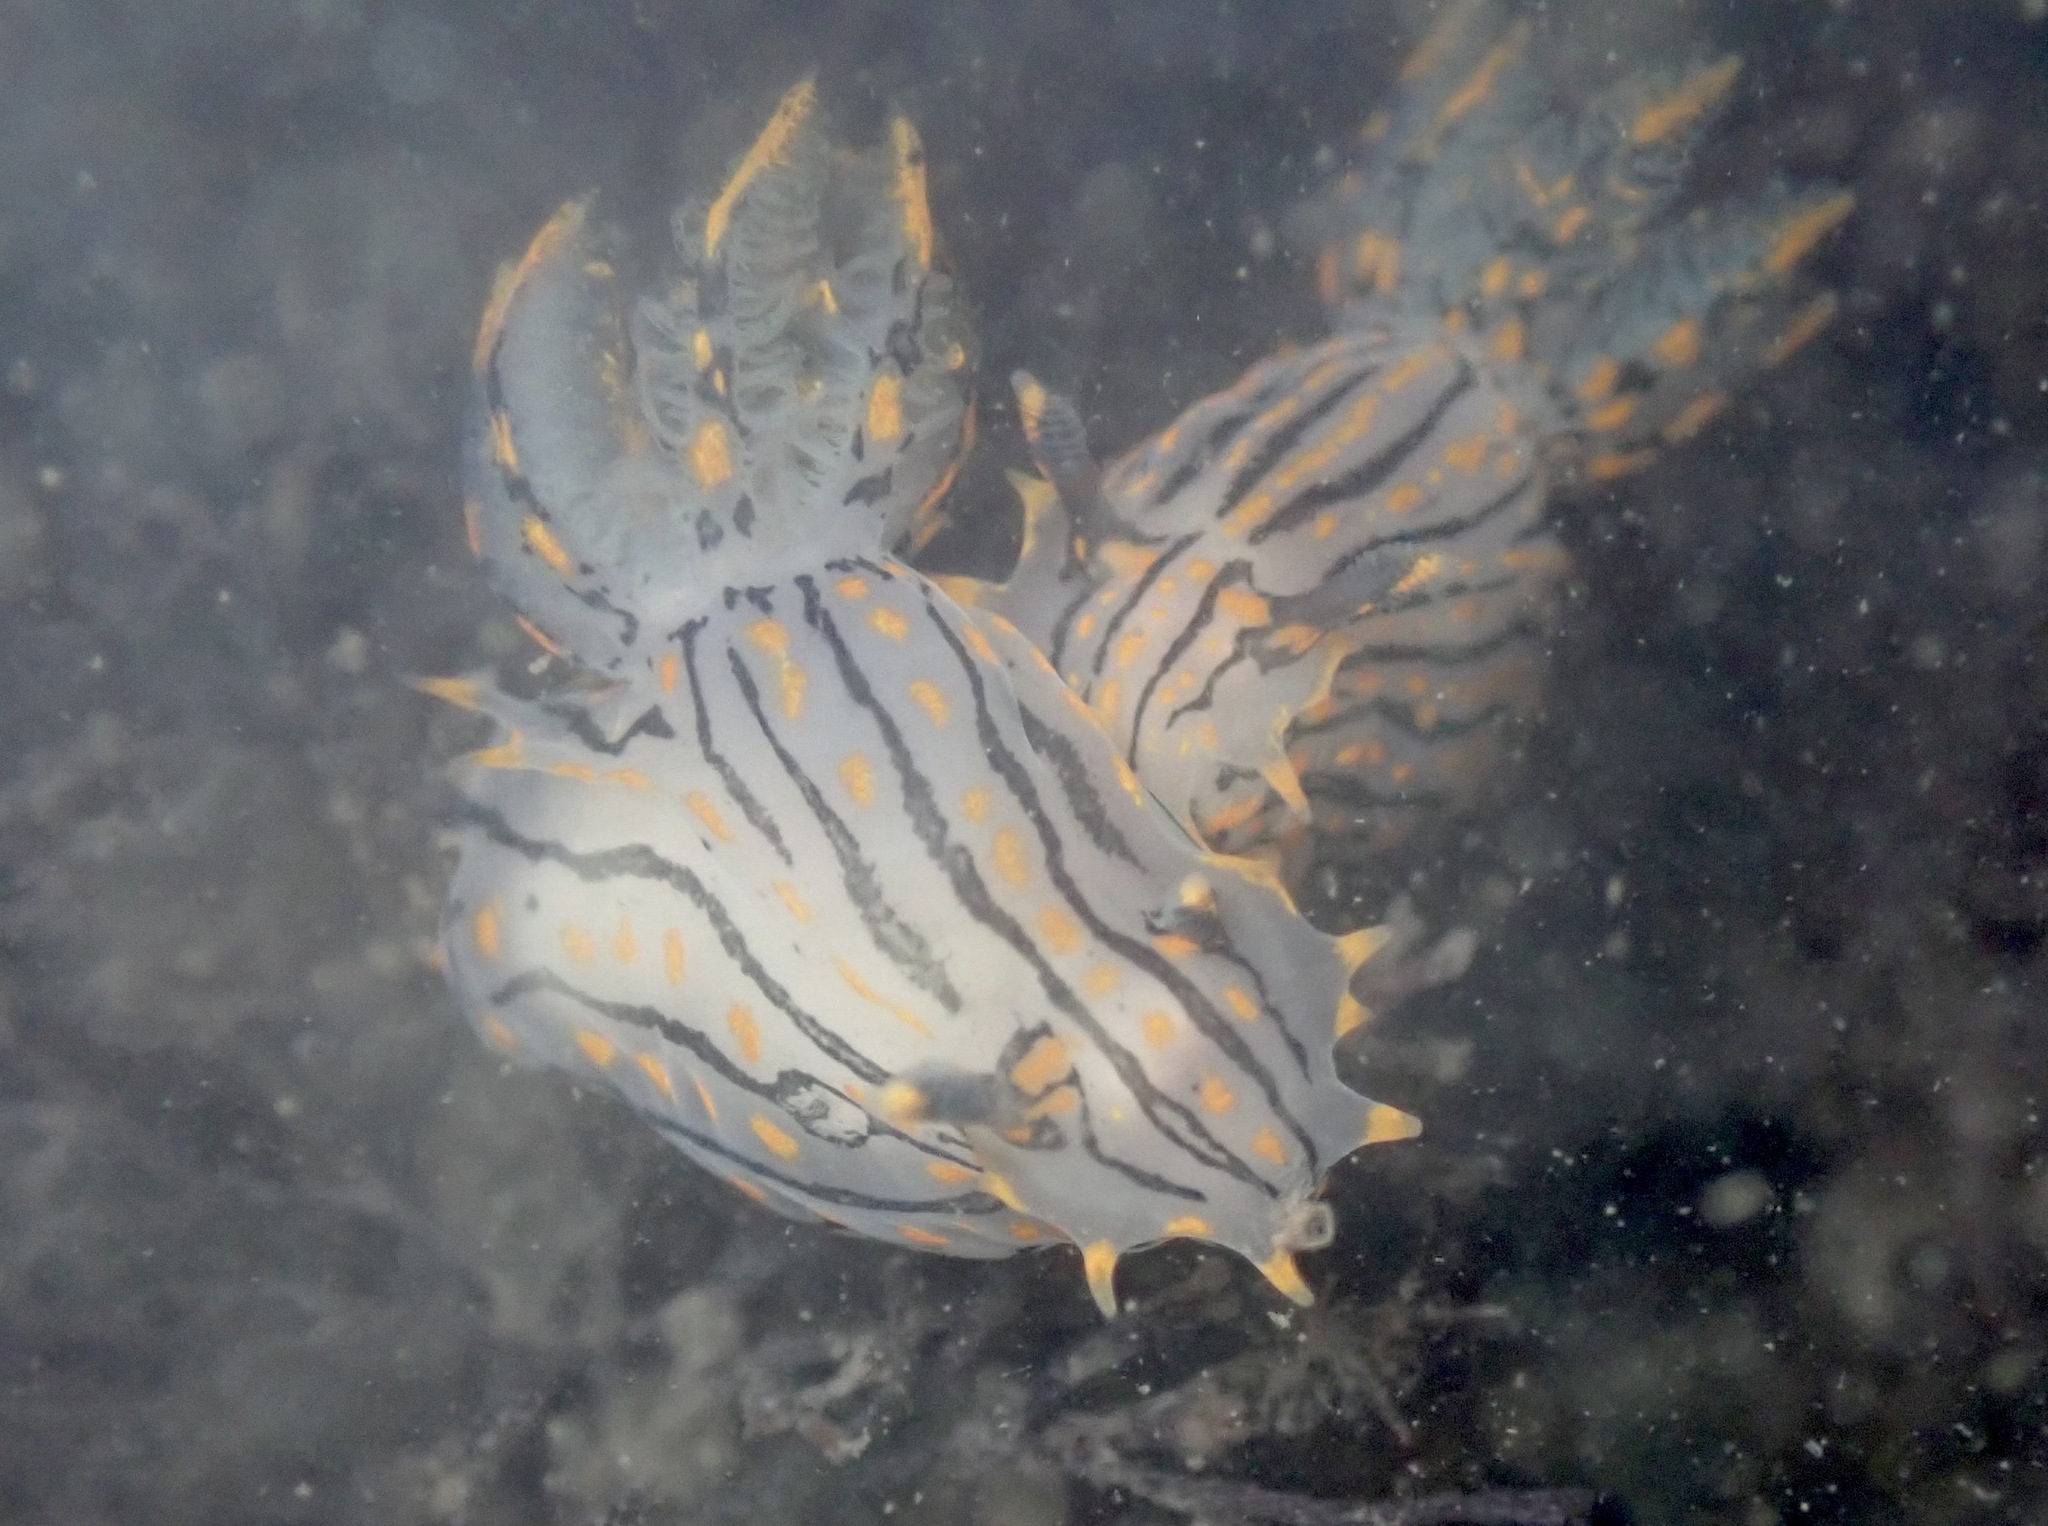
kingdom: Animalia
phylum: Mollusca
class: Gastropoda
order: Nudibranchia
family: Polyceridae
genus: Polycera
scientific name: Polycera atra
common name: Orange-spike polycera
